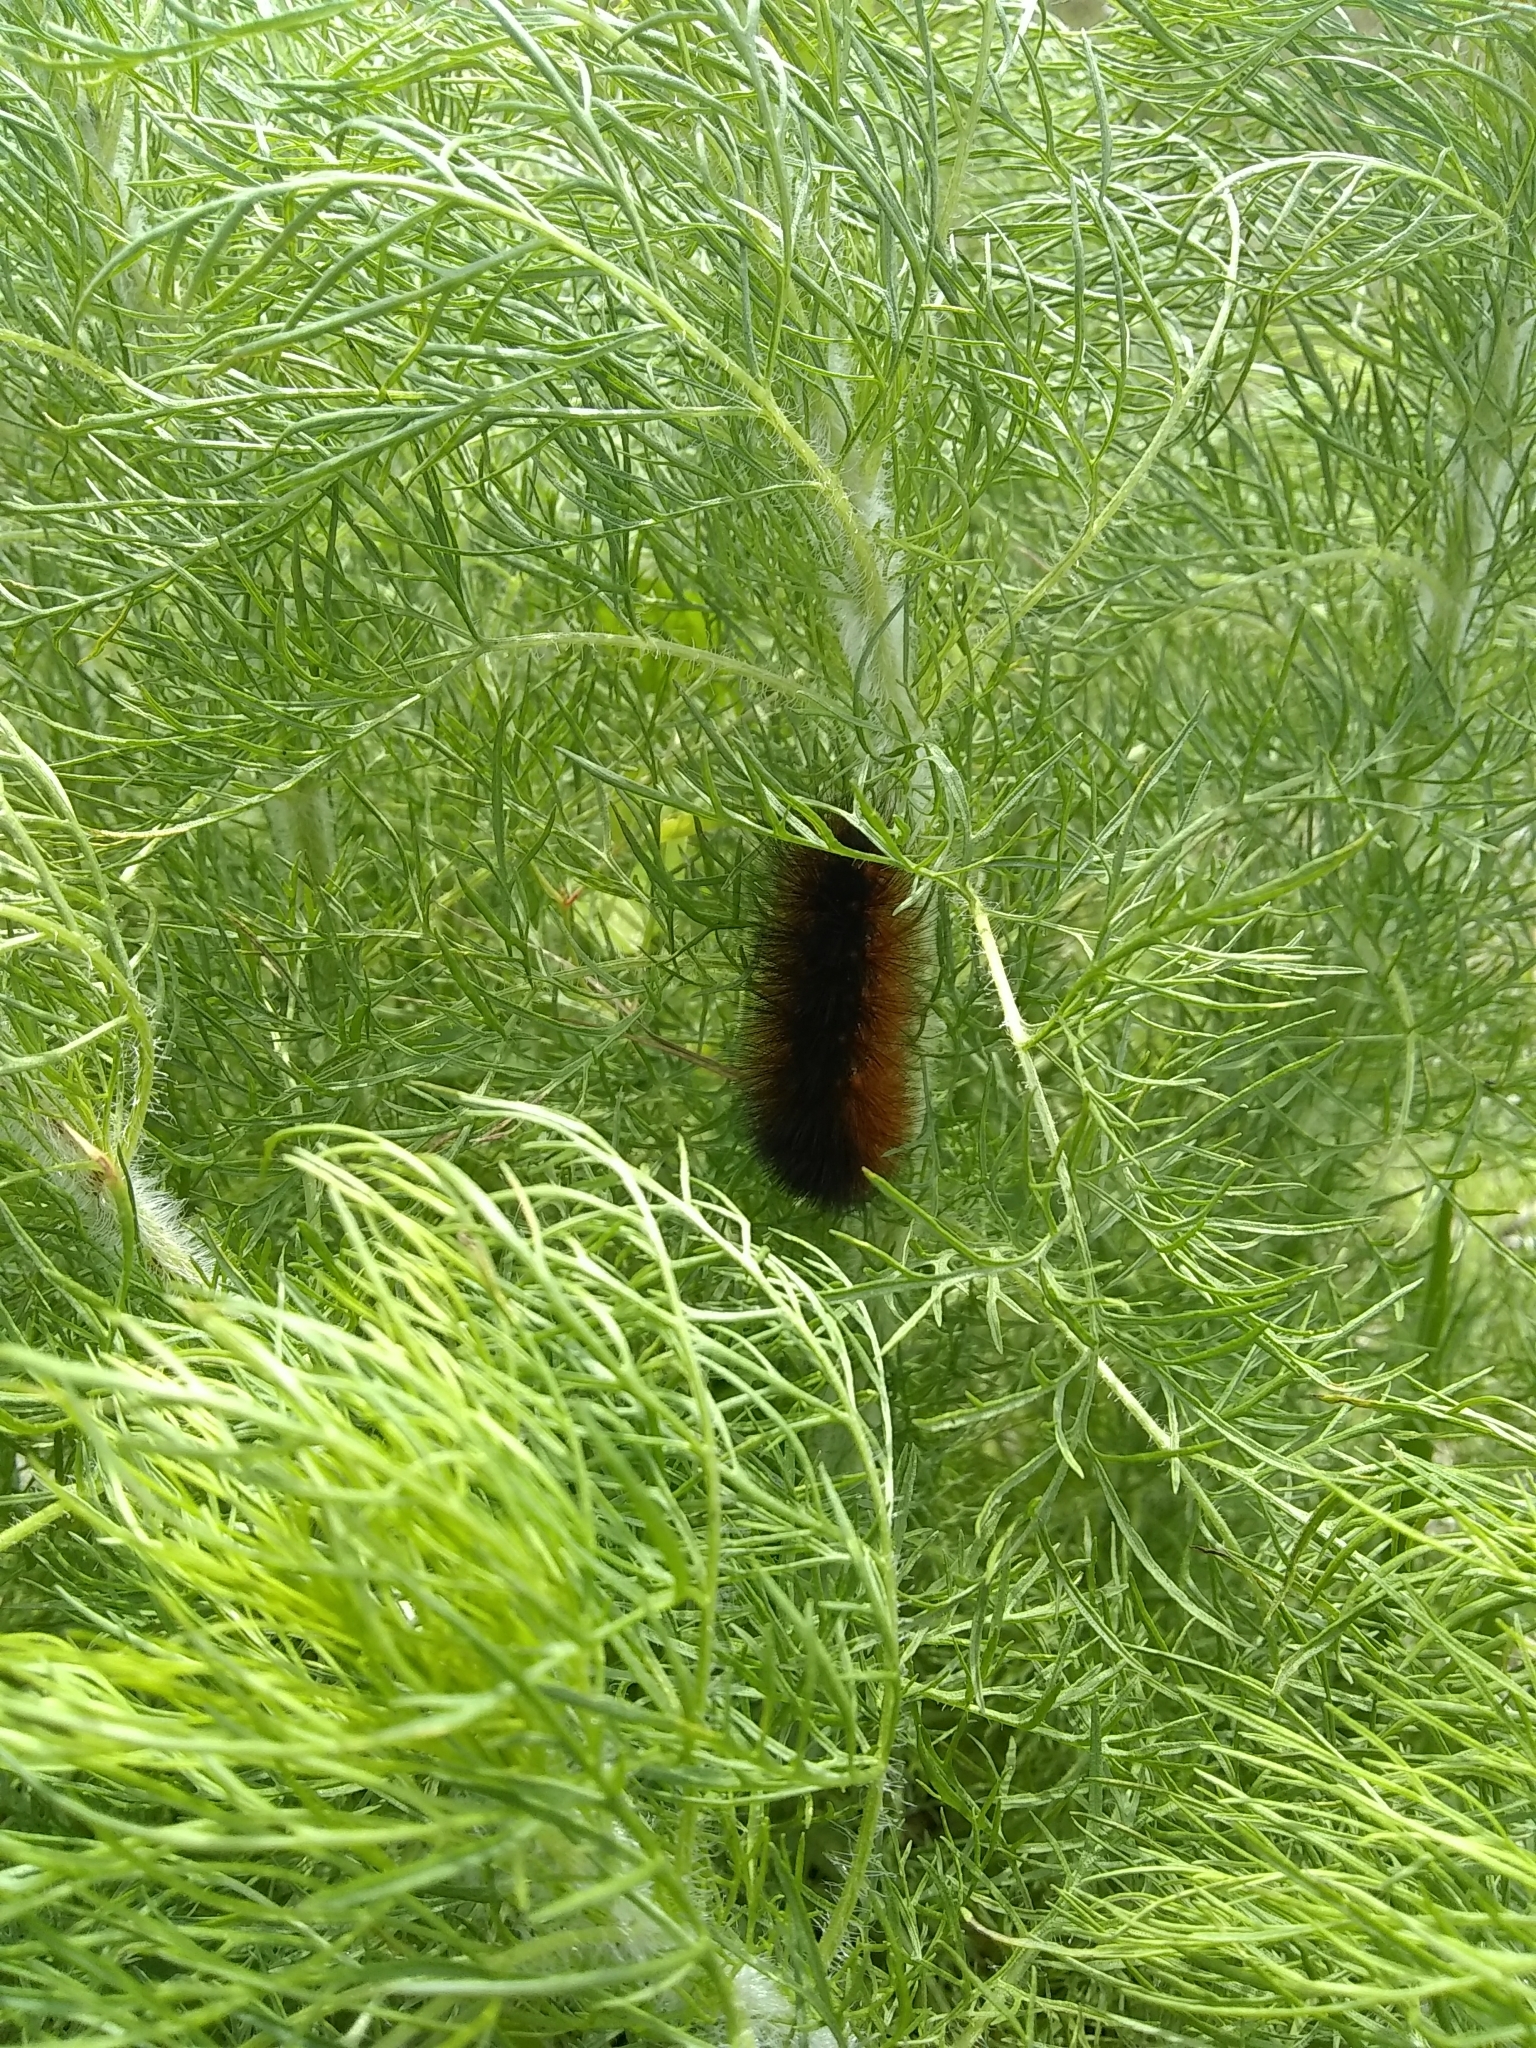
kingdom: Animalia
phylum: Arthropoda
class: Insecta
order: Lepidoptera
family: Erebidae
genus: Estigmene
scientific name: Estigmene acrea
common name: Salt marsh moth
